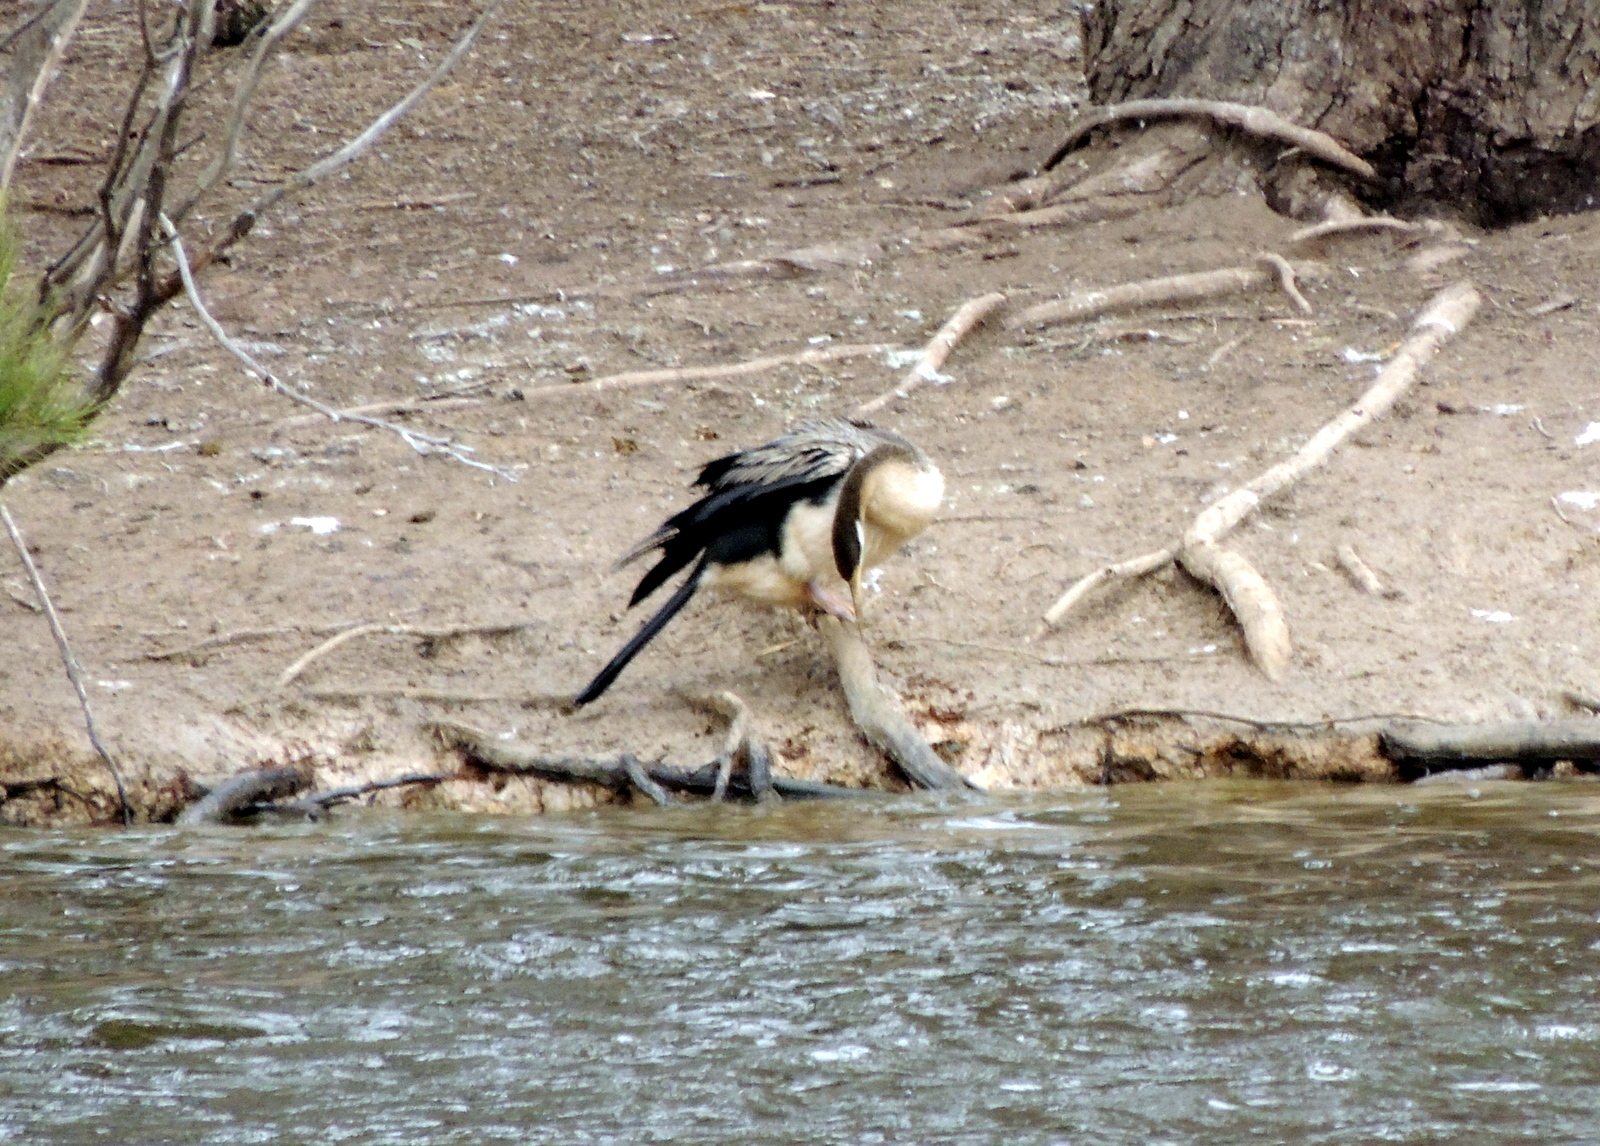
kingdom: Animalia
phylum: Chordata
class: Aves
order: Suliformes
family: Anhingidae
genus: Anhinga
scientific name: Anhinga novaehollandiae
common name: Australasian darter
